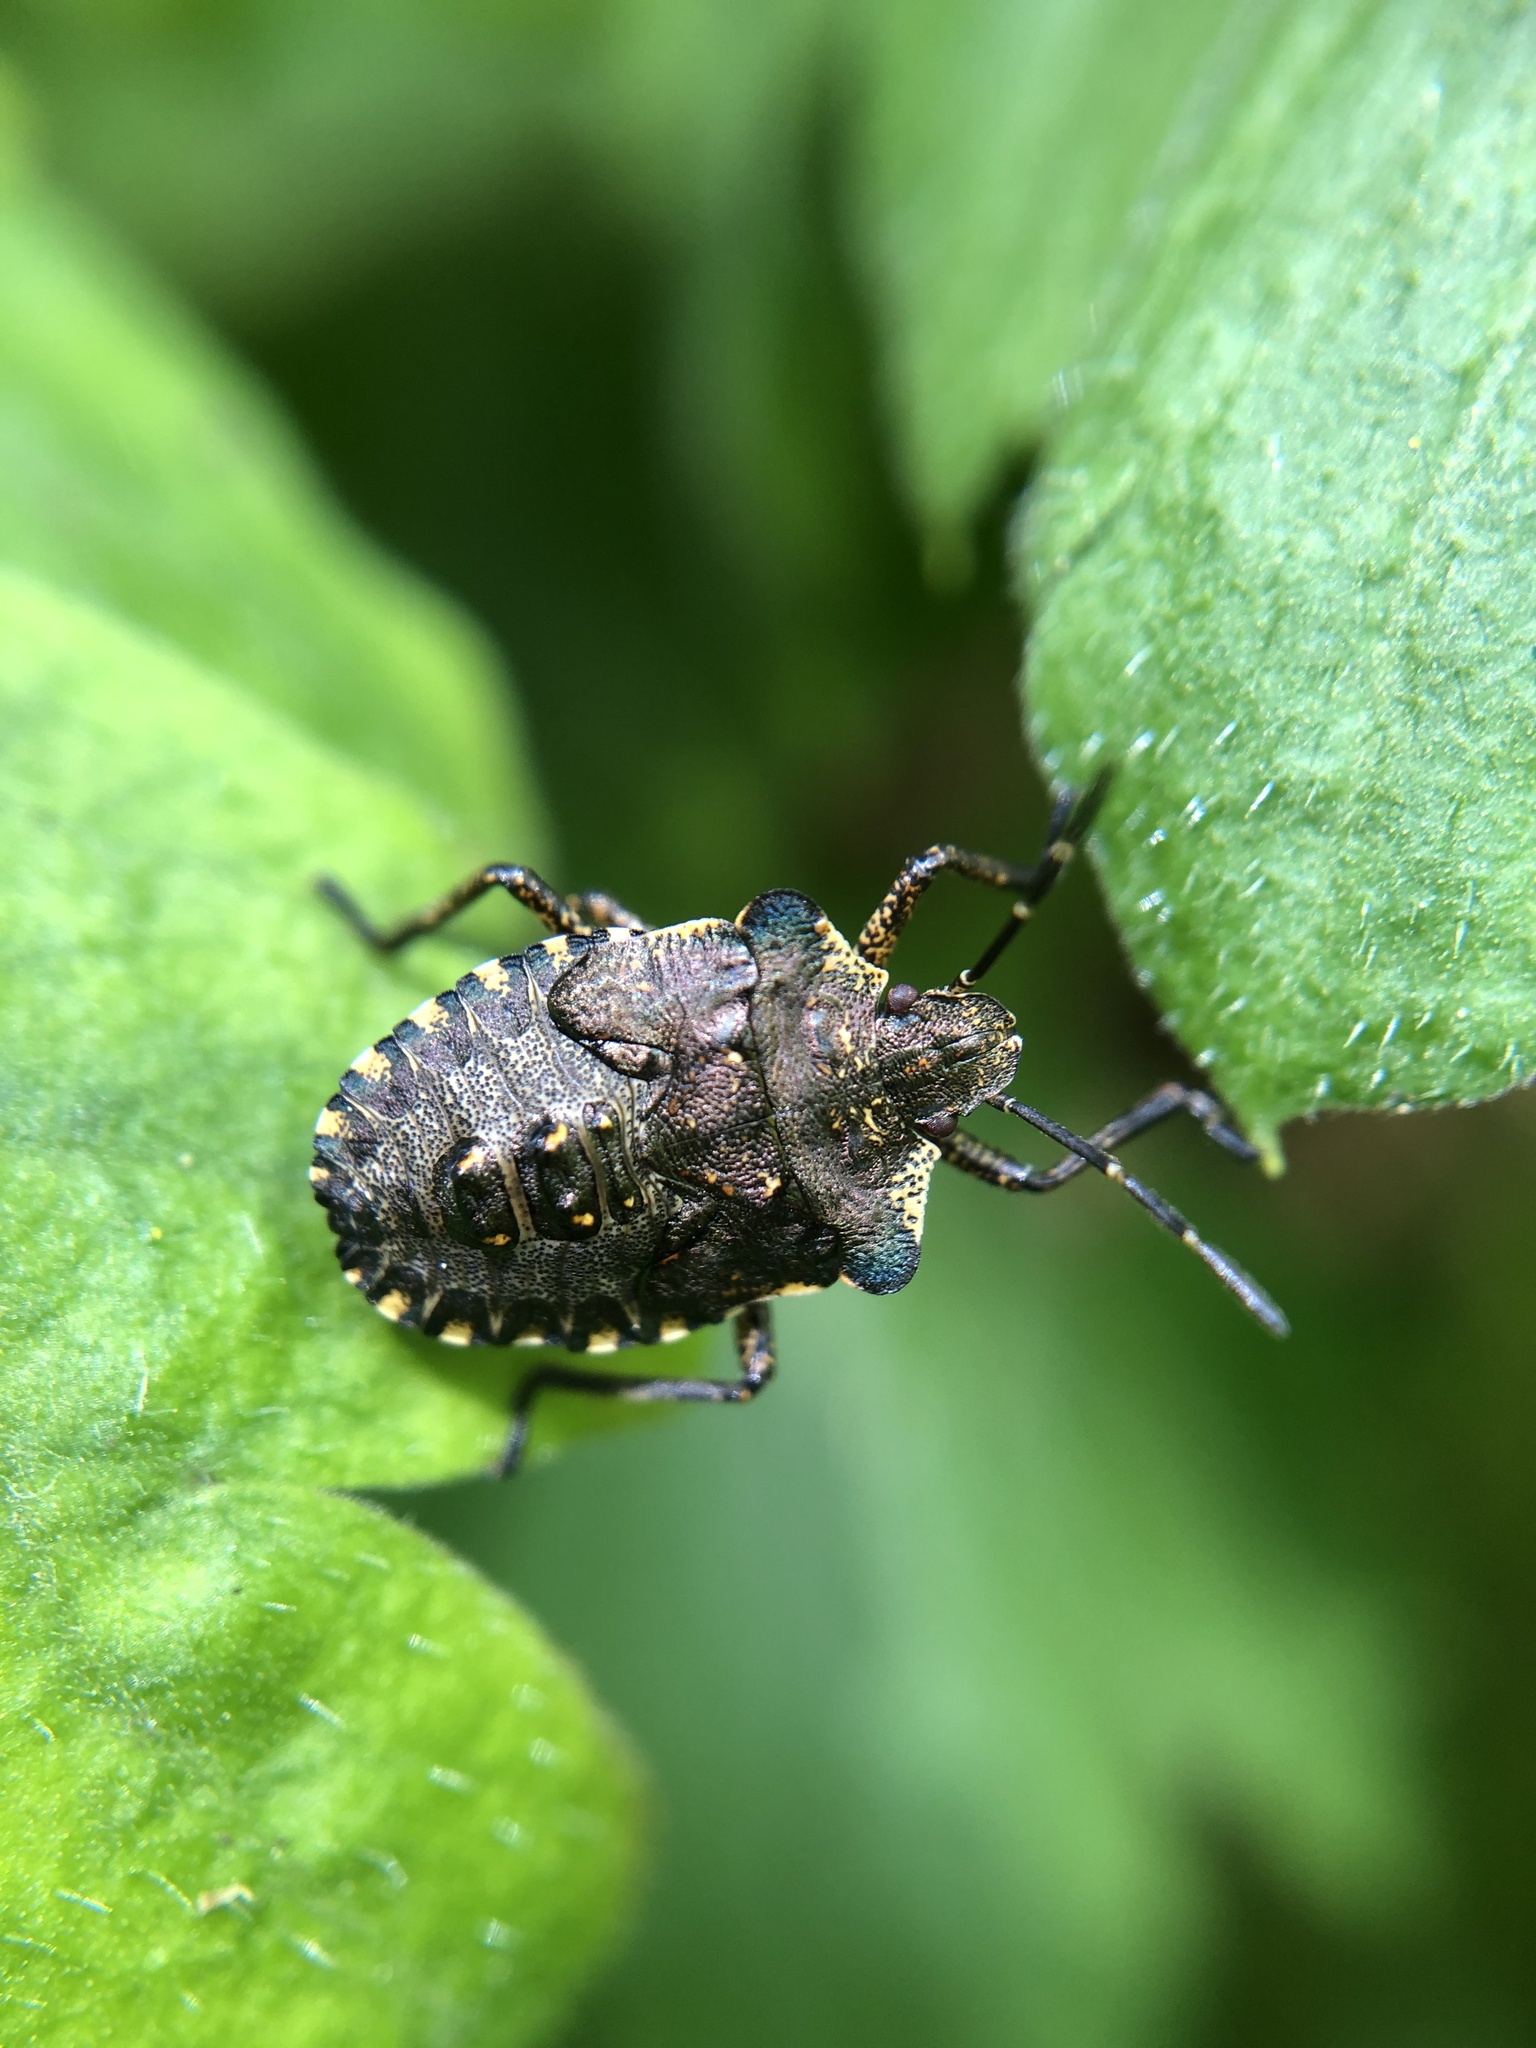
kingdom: Animalia
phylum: Arthropoda
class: Insecta
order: Hemiptera
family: Pentatomidae
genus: Pentatoma
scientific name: Pentatoma rufipes
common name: Forest bug
